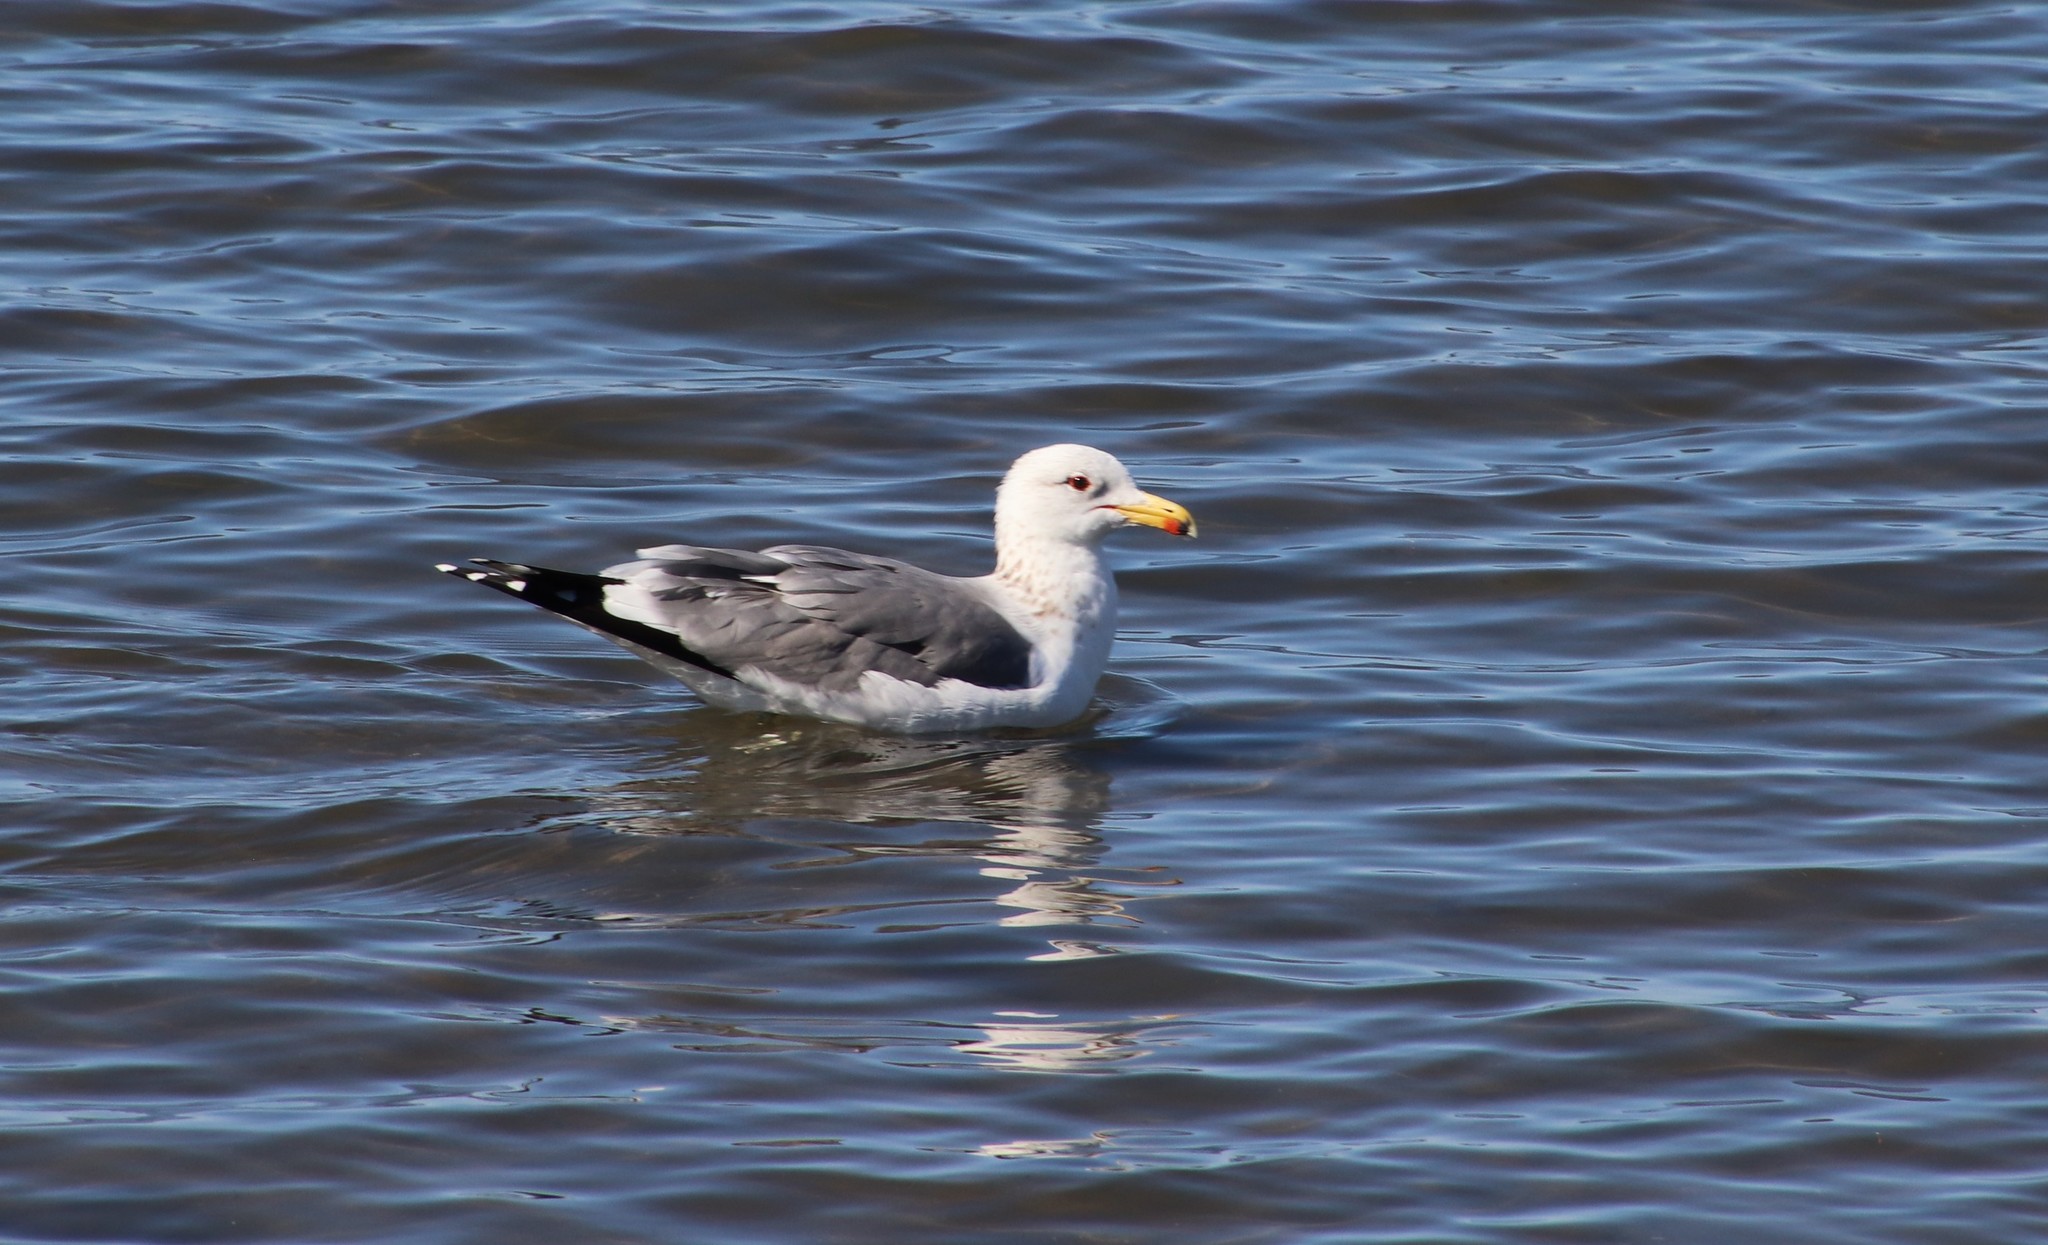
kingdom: Animalia
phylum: Chordata
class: Aves
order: Charadriiformes
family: Laridae
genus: Larus
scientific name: Larus californicus
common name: California gull
